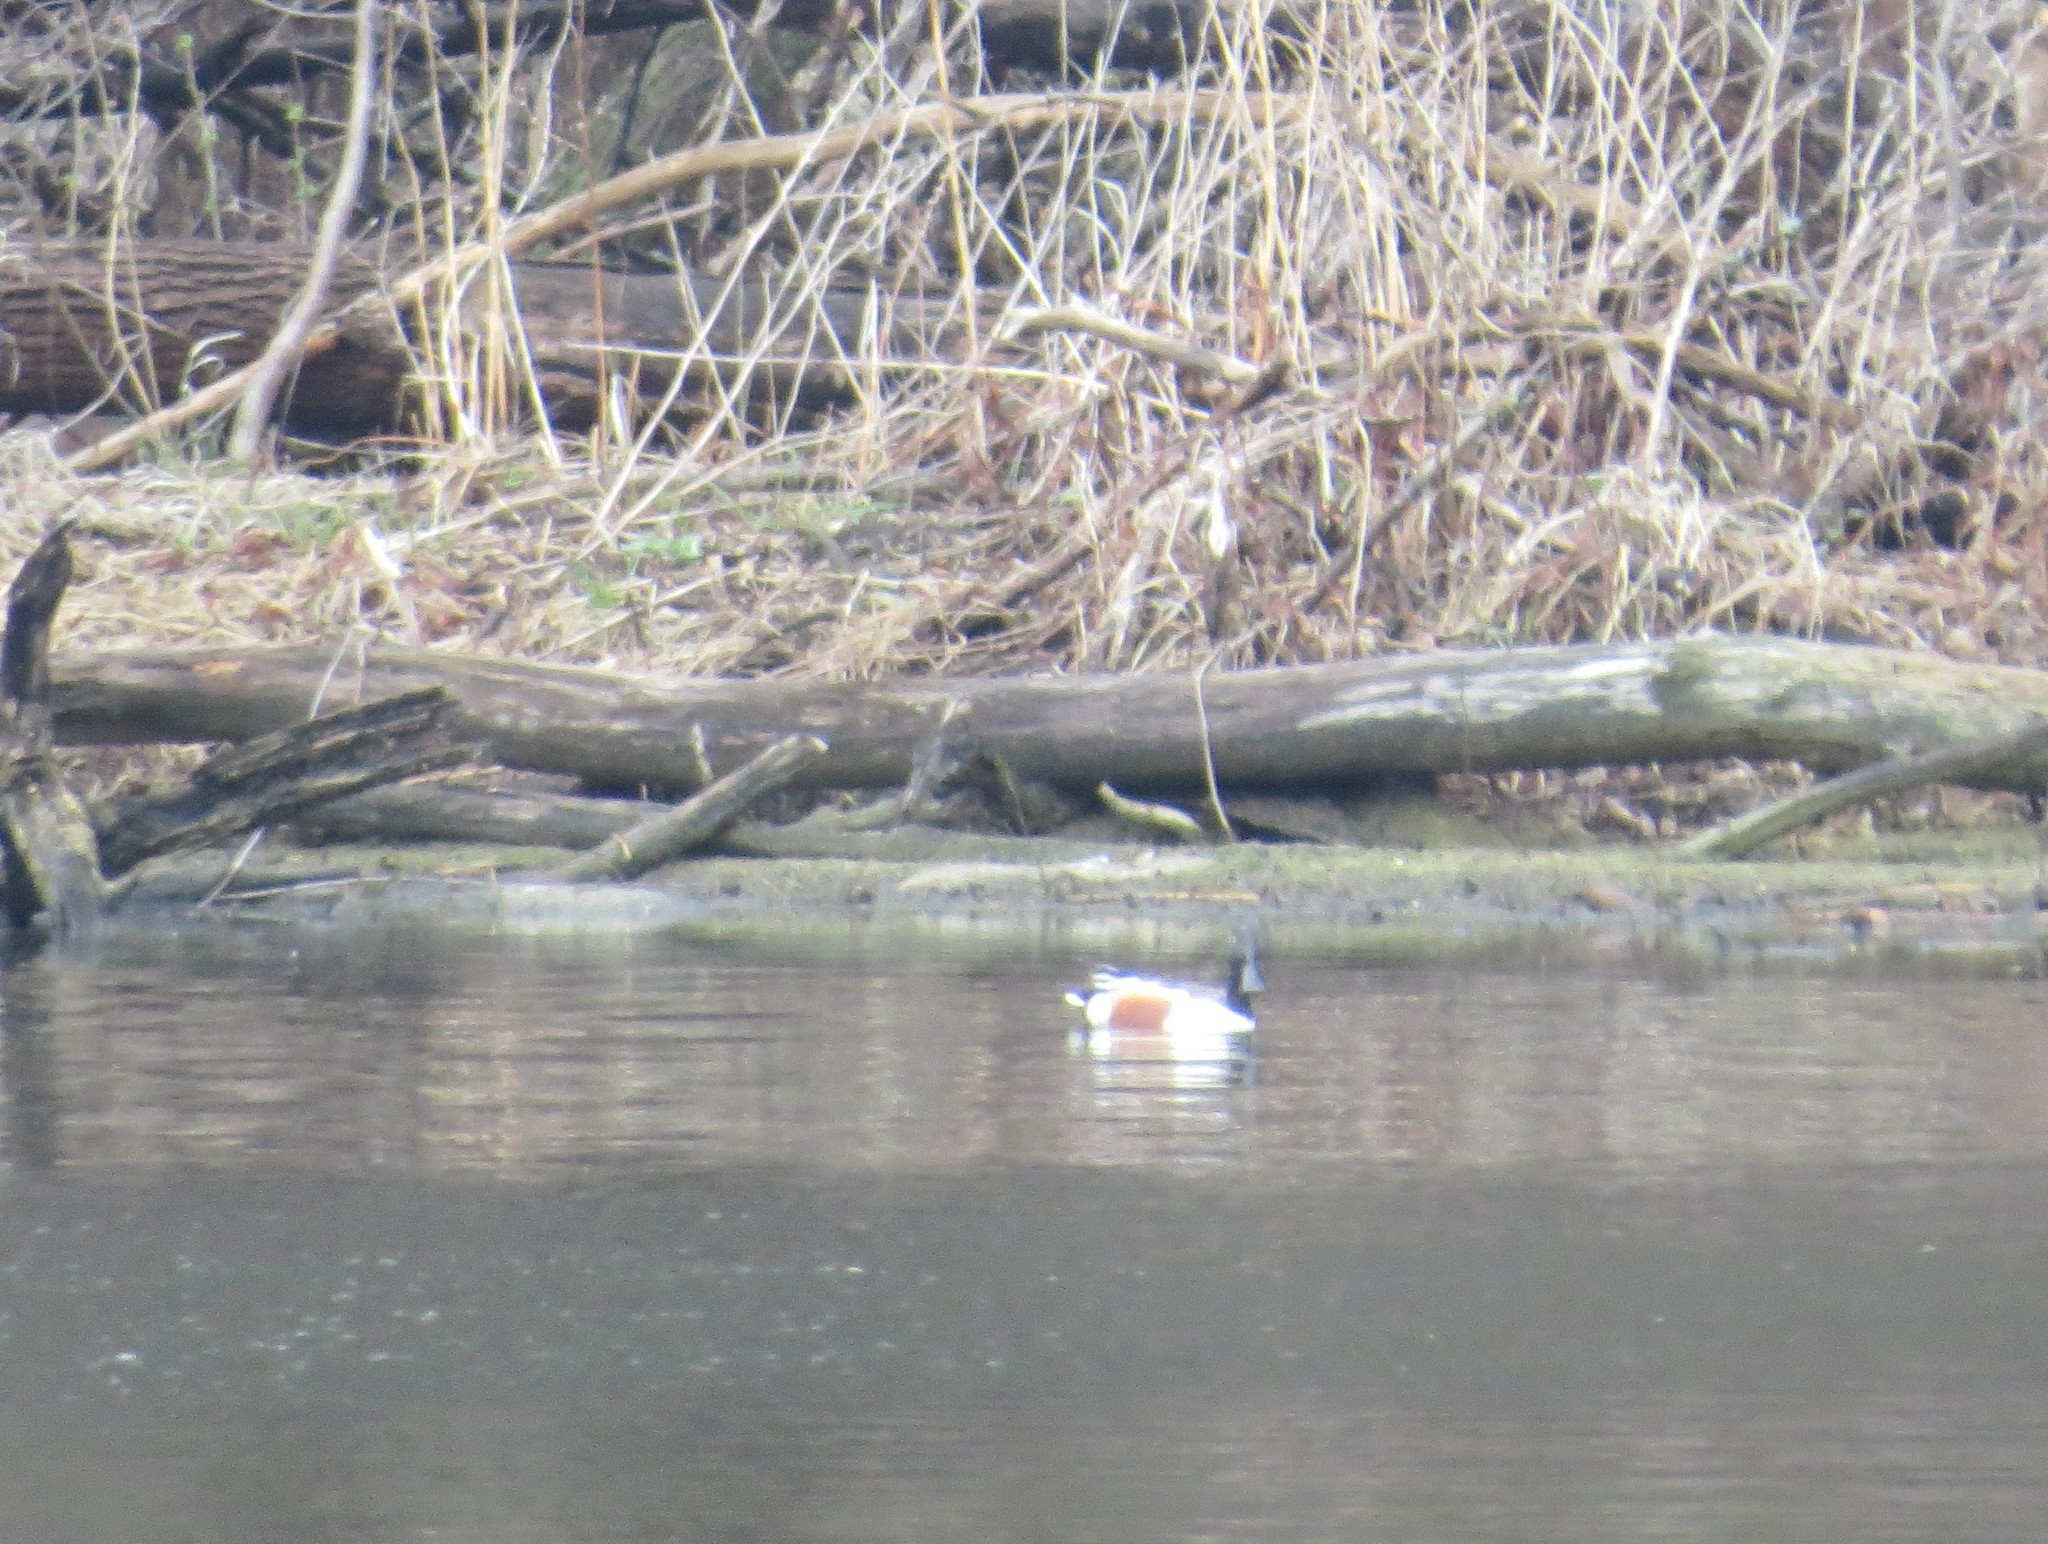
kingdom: Animalia
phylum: Chordata
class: Aves
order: Anseriformes
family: Anatidae
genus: Spatula
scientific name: Spatula clypeata
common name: Northern shoveler
